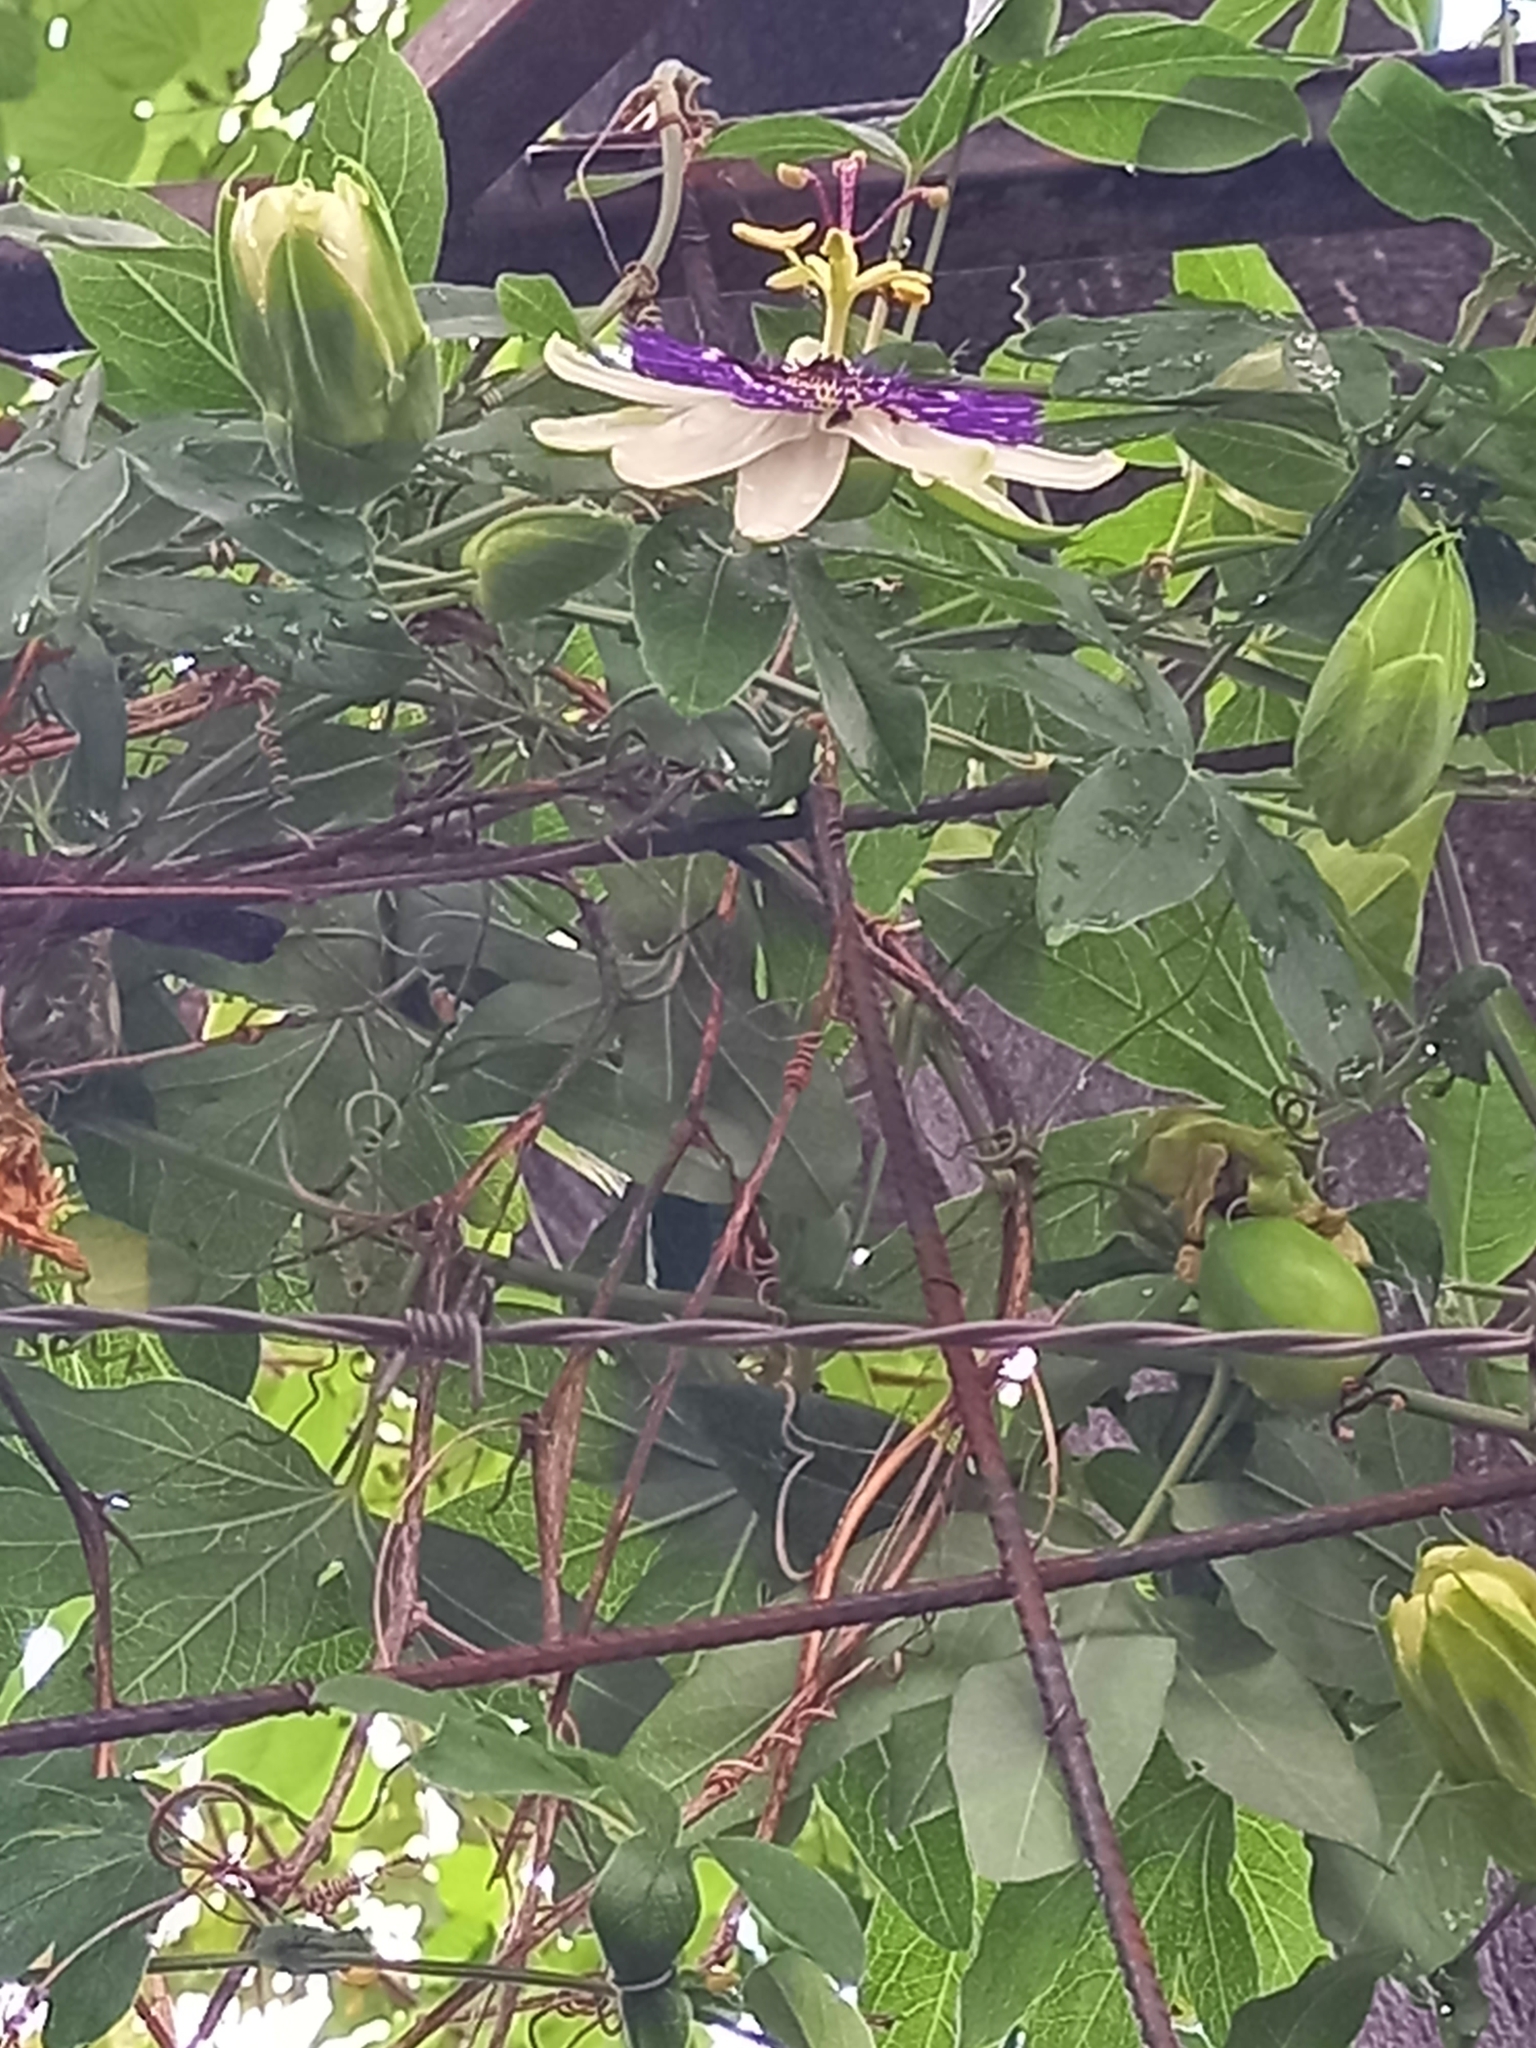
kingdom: Plantae
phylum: Tracheophyta
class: Magnoliopsida
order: Malpighiales
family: Passifloraceae
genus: Passiflora
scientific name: Passiflora caerulea
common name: Blue passionflower
